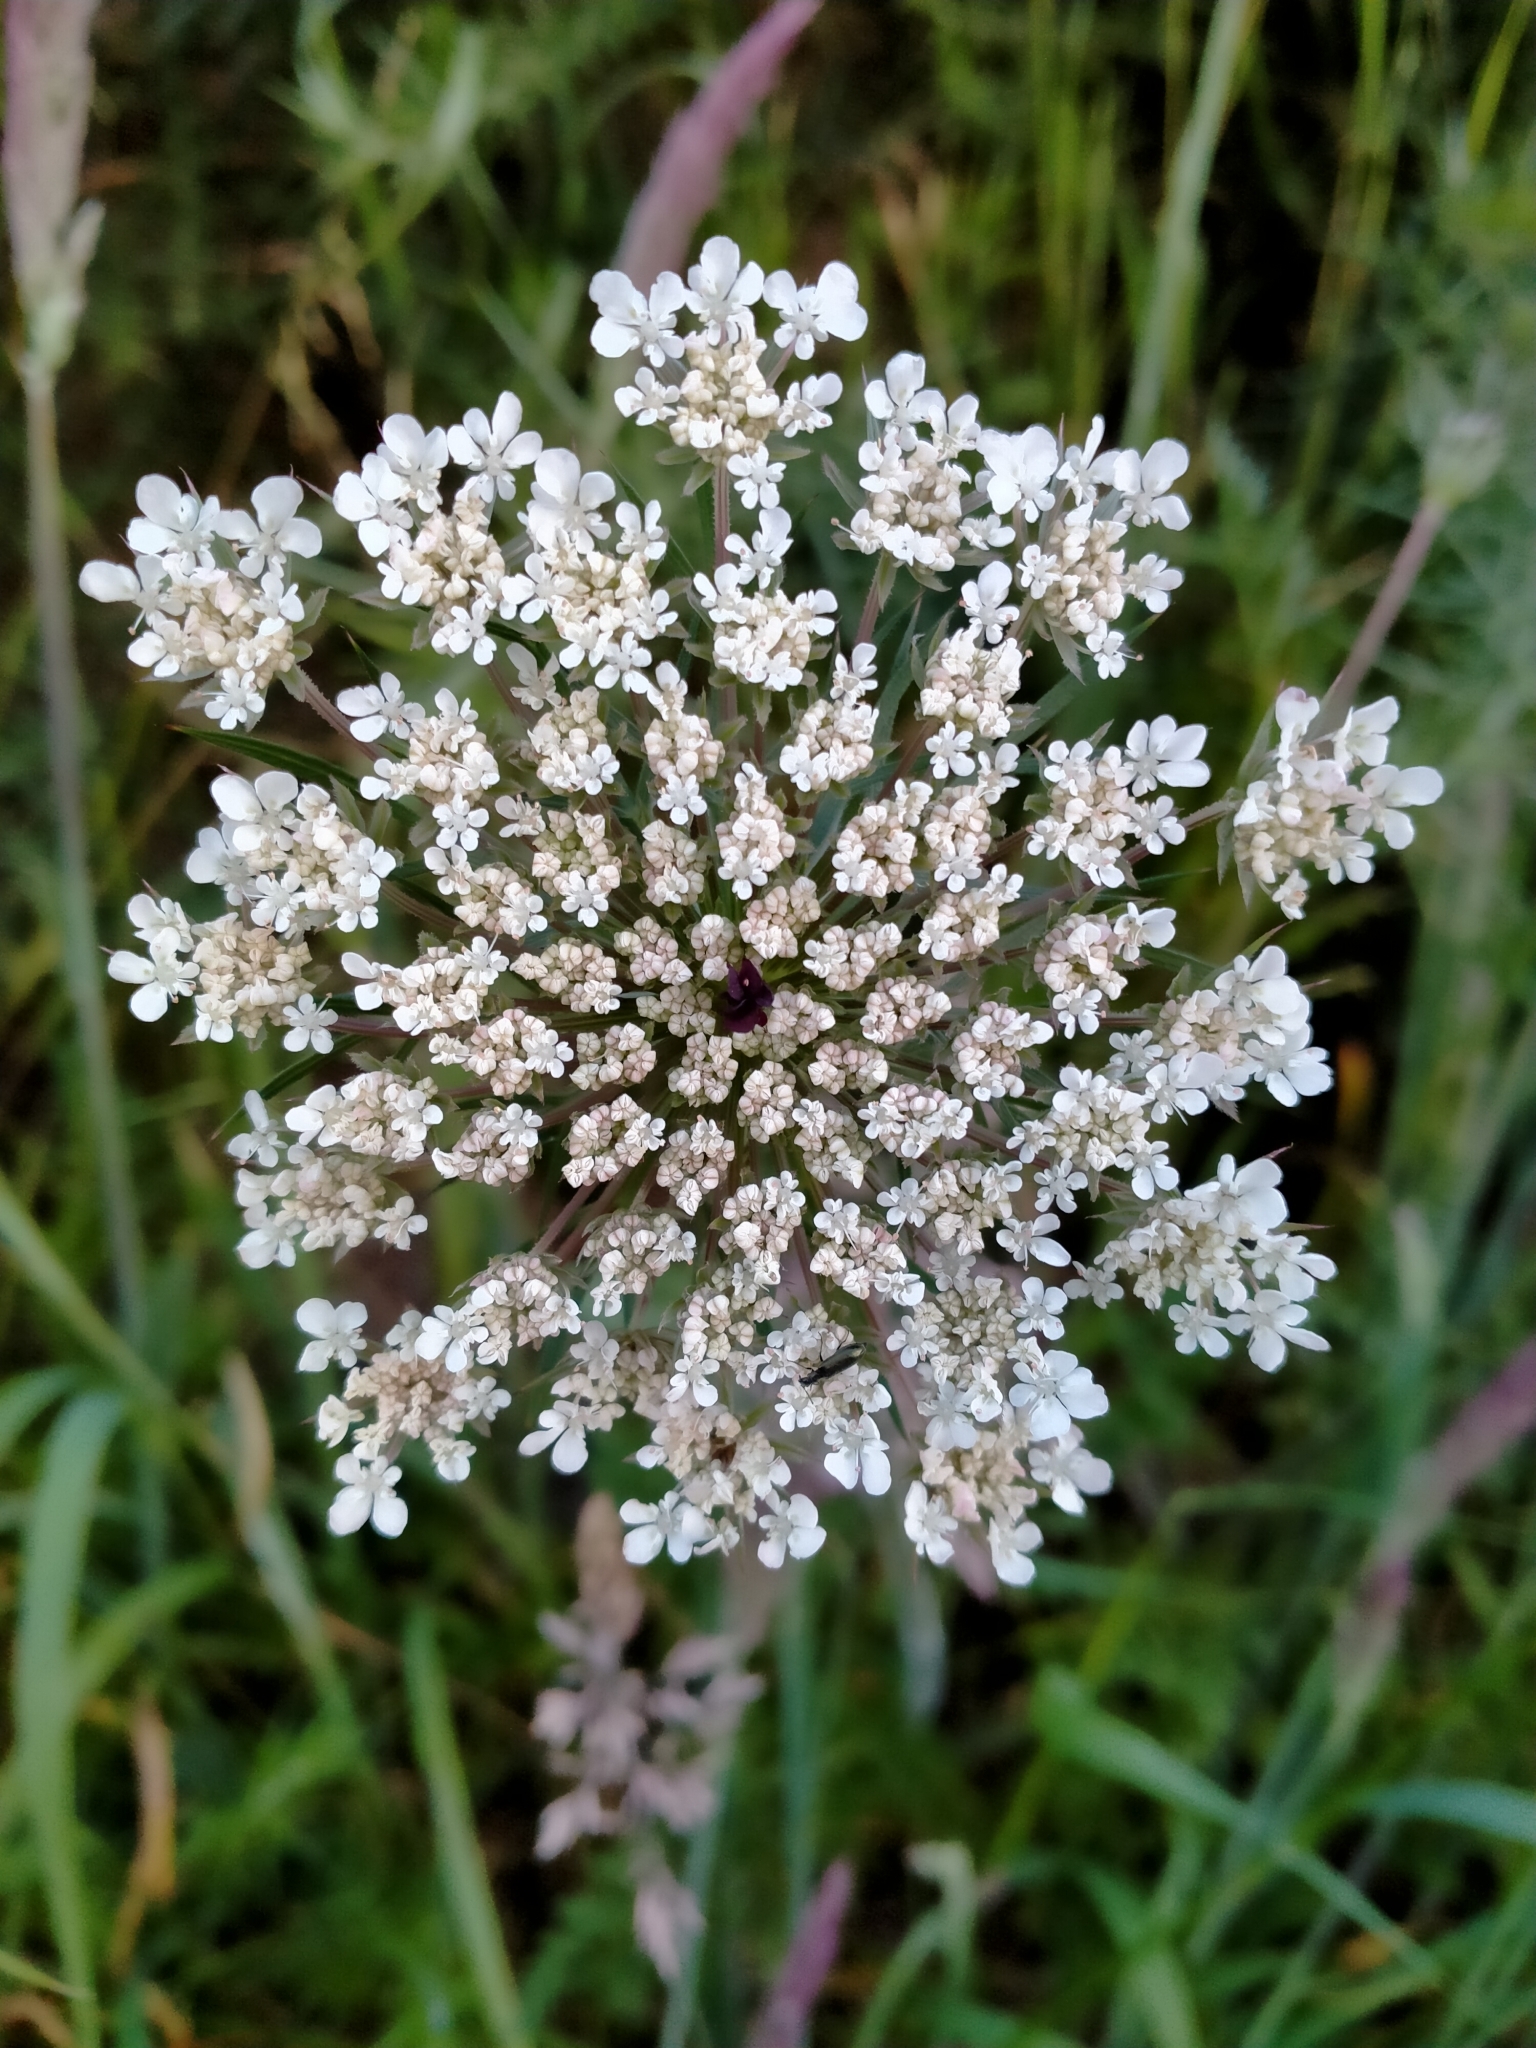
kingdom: Plantae
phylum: Tracheophyta
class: Magnoliopsida
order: Apiales
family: Apiaceae
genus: Daucus
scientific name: Daucus carota
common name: Wild carrot
